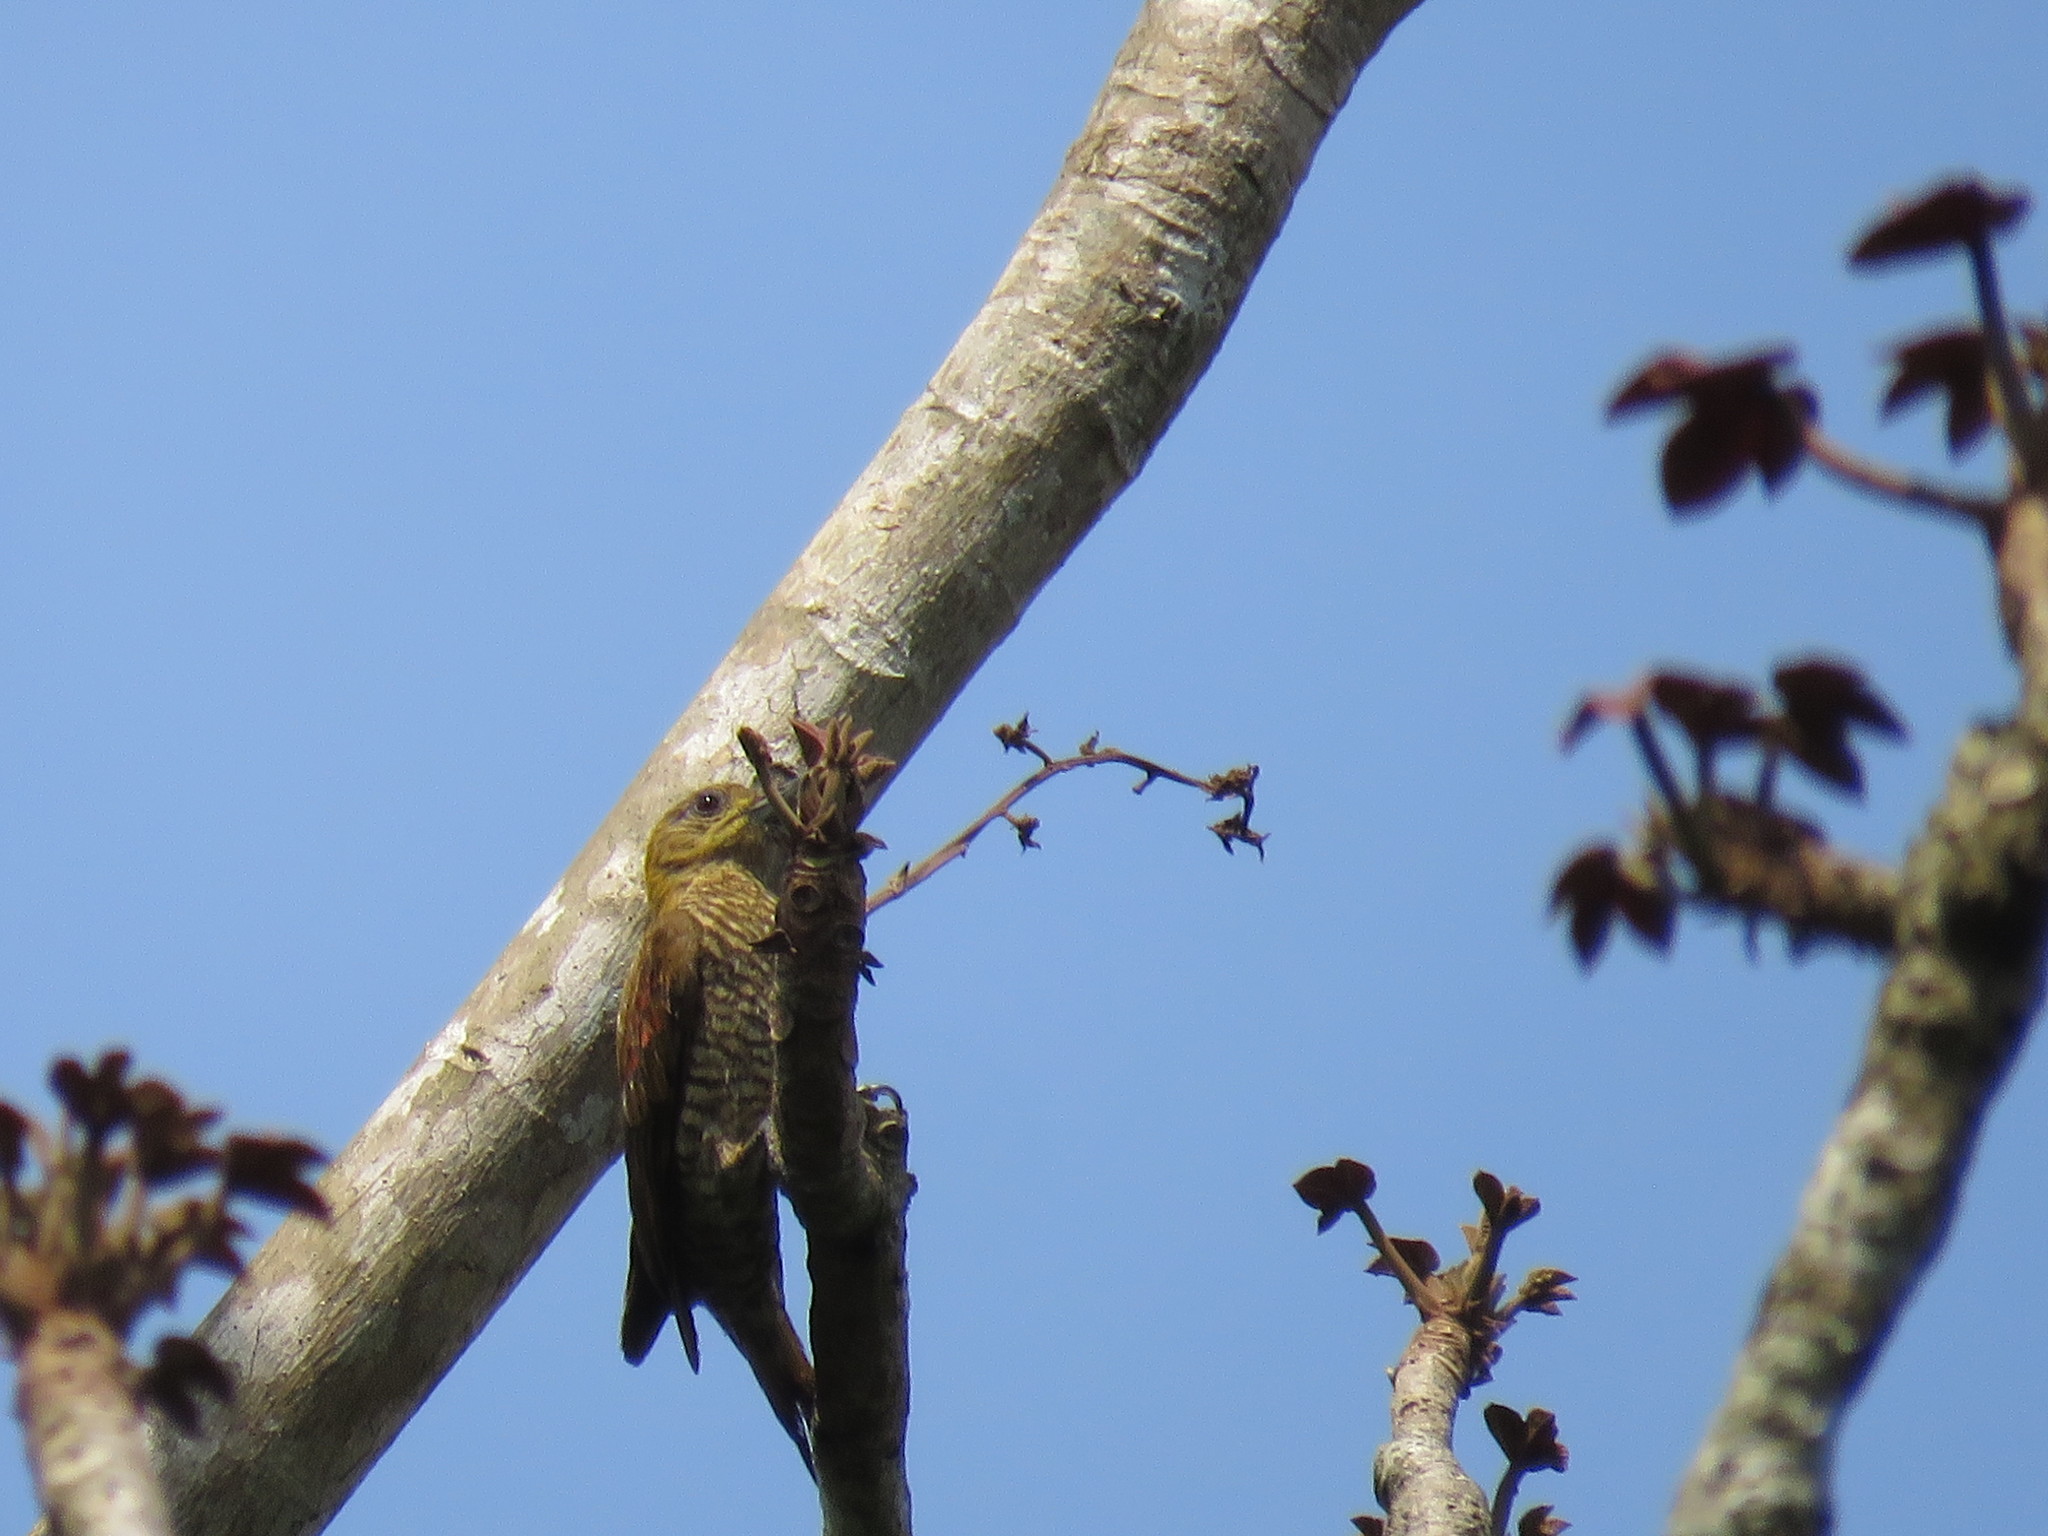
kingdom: Animalia
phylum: Chordata
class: Aves
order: Piciformes
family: Picidae
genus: Veniliornis
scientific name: Veniliornis affinis
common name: Red-stained woodpecker
